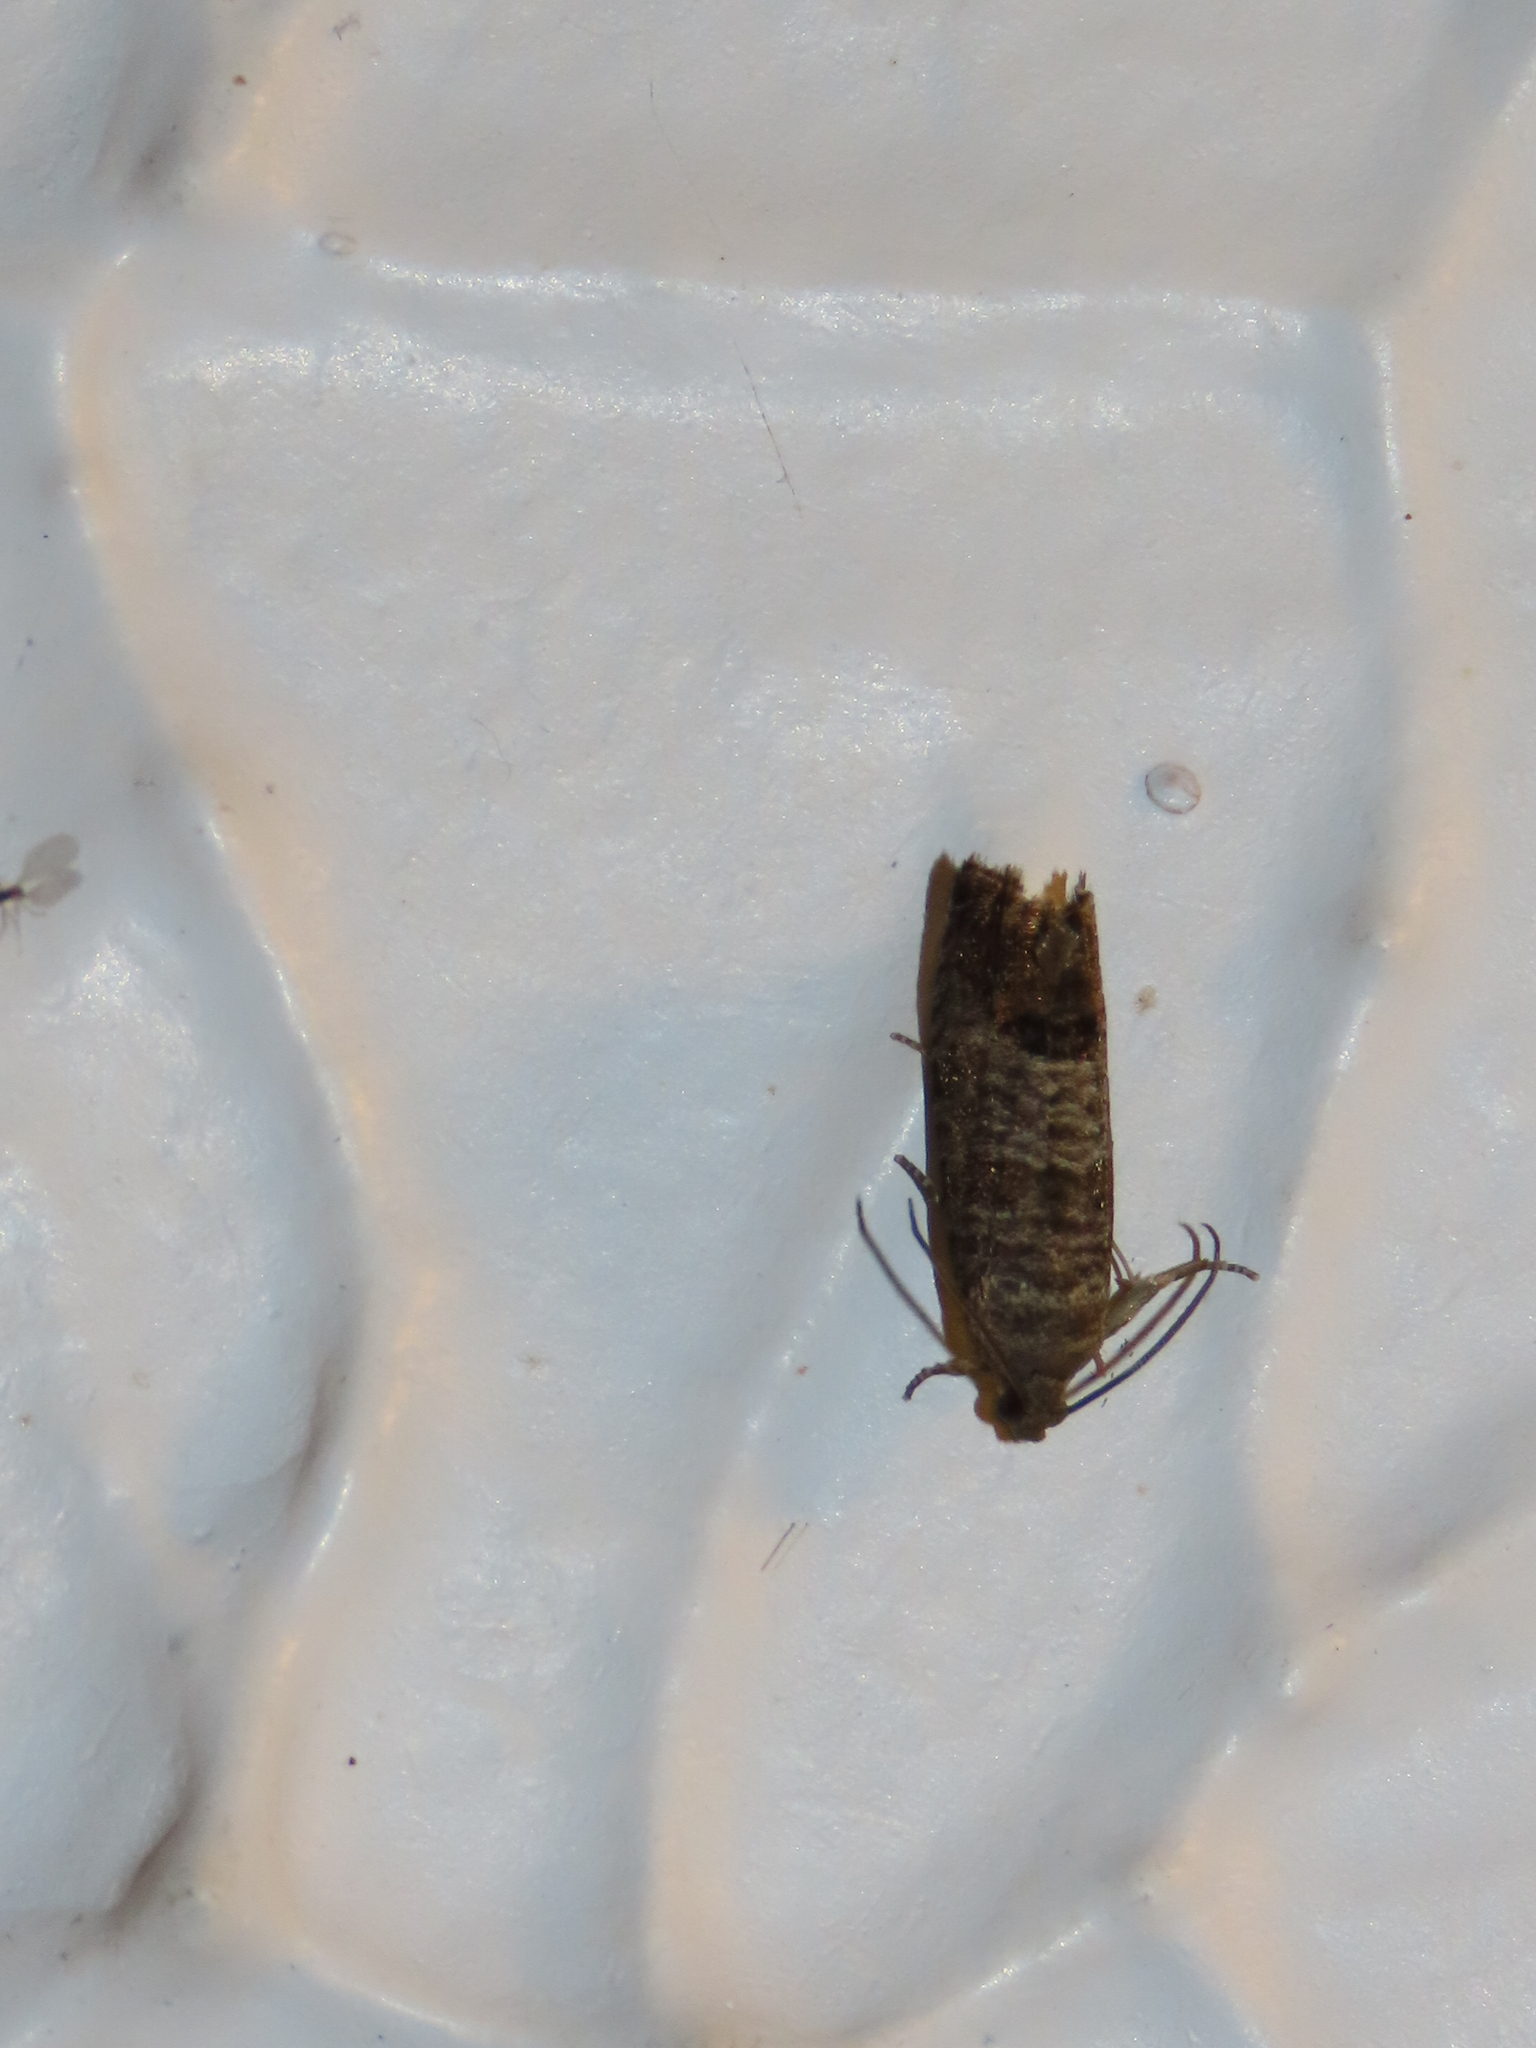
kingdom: Animalia
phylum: Arthropoda
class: Insecta
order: Lepidoptera
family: Tortricidae
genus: Cydia
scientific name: Cydia pomonella
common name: Codling moth
